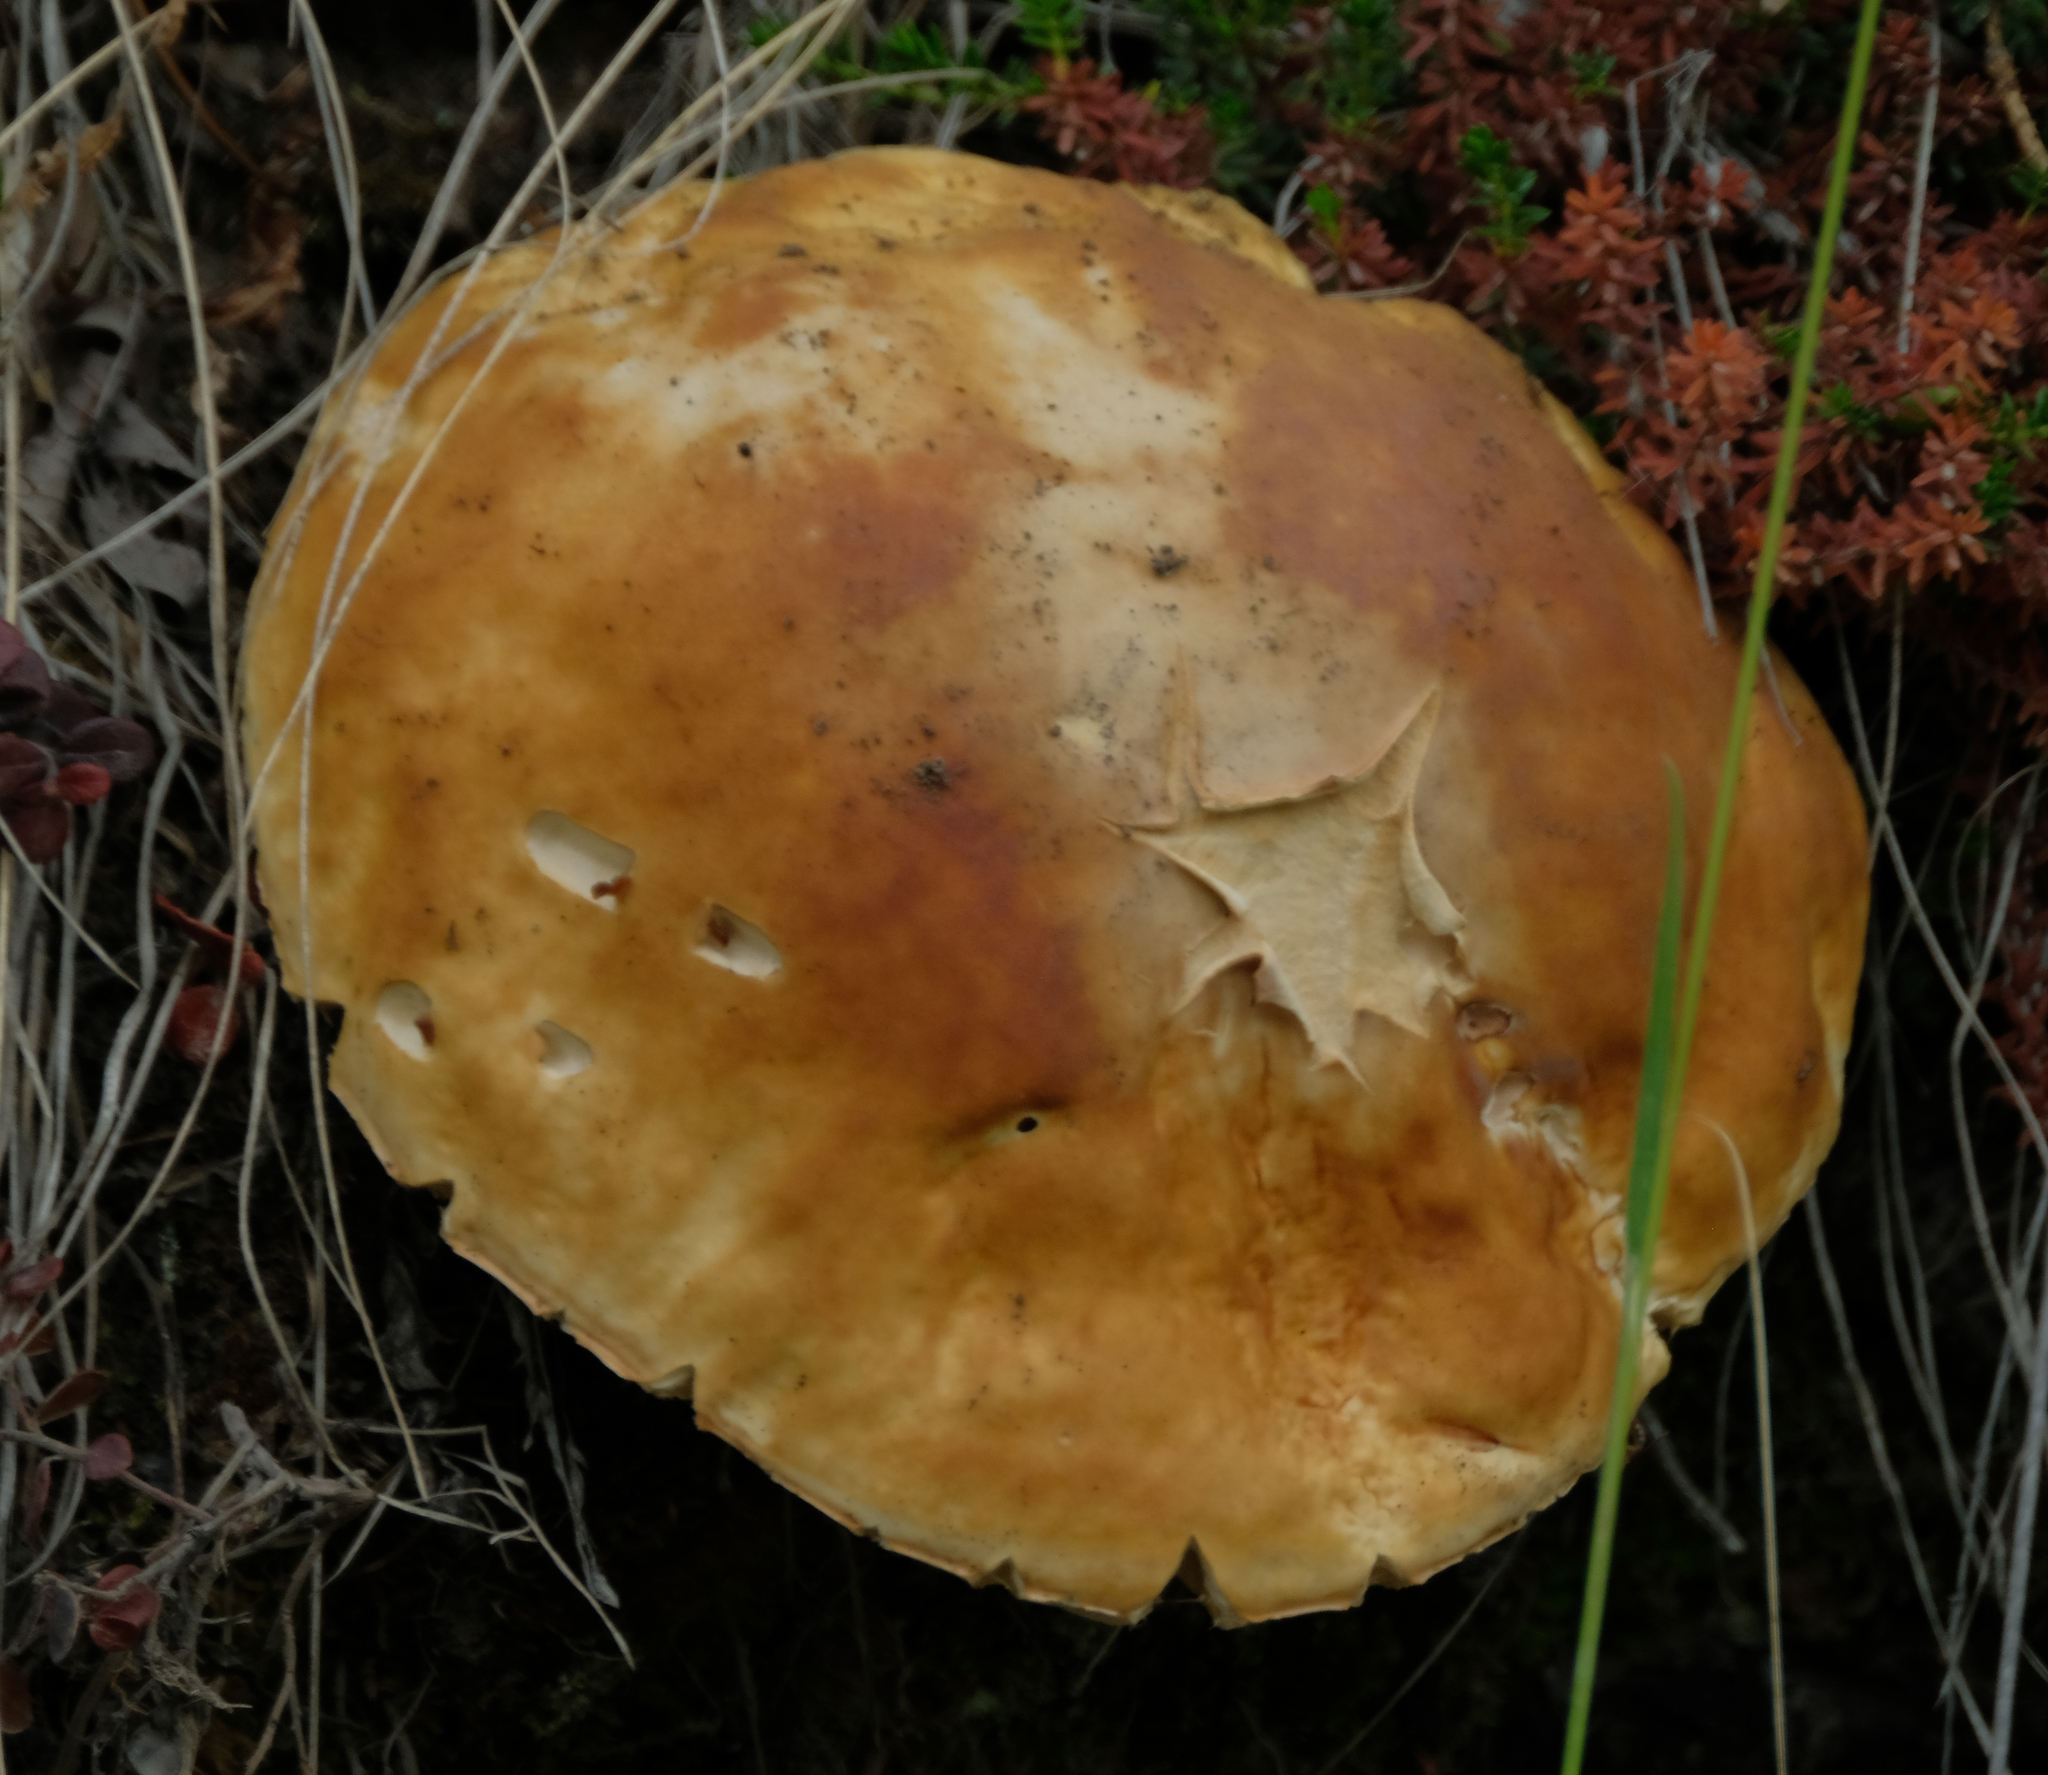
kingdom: Fungi
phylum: Basidiomycota
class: Agaricomycetes
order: Boletales
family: Boletaceae
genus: Boletus
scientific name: Boletus edulis
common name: Cep
